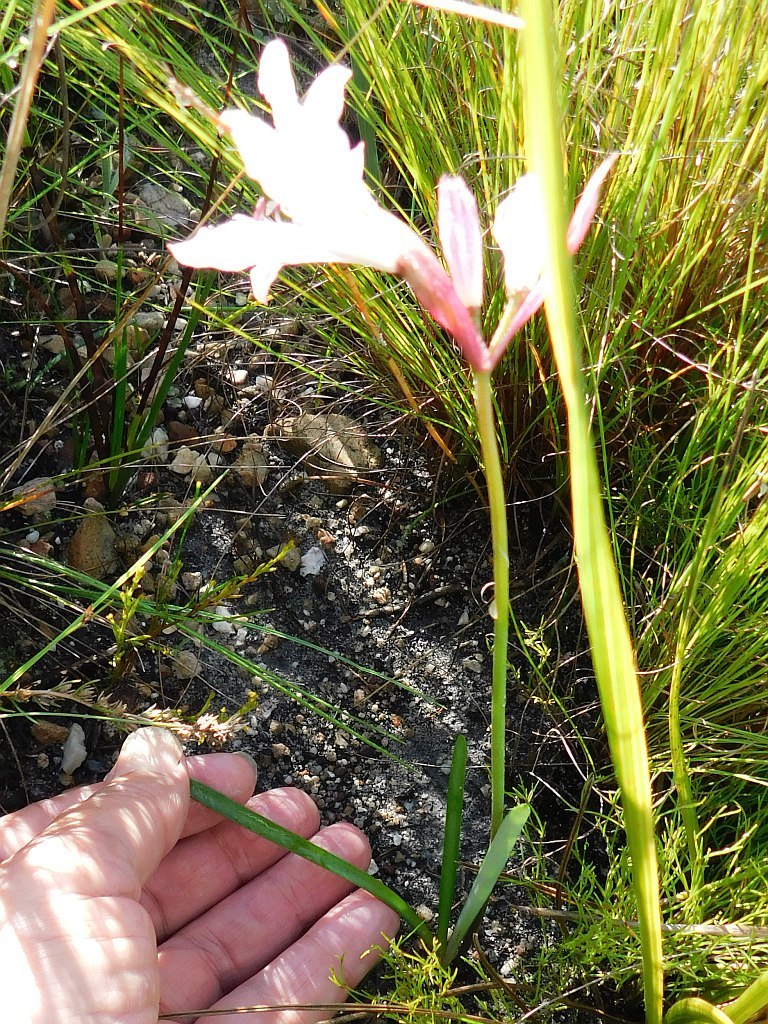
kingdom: Plantae
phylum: Tracheophyta
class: Liliopsida
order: Asparagales
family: Amaryllidaceae
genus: Nerine
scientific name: Nerine pudica
